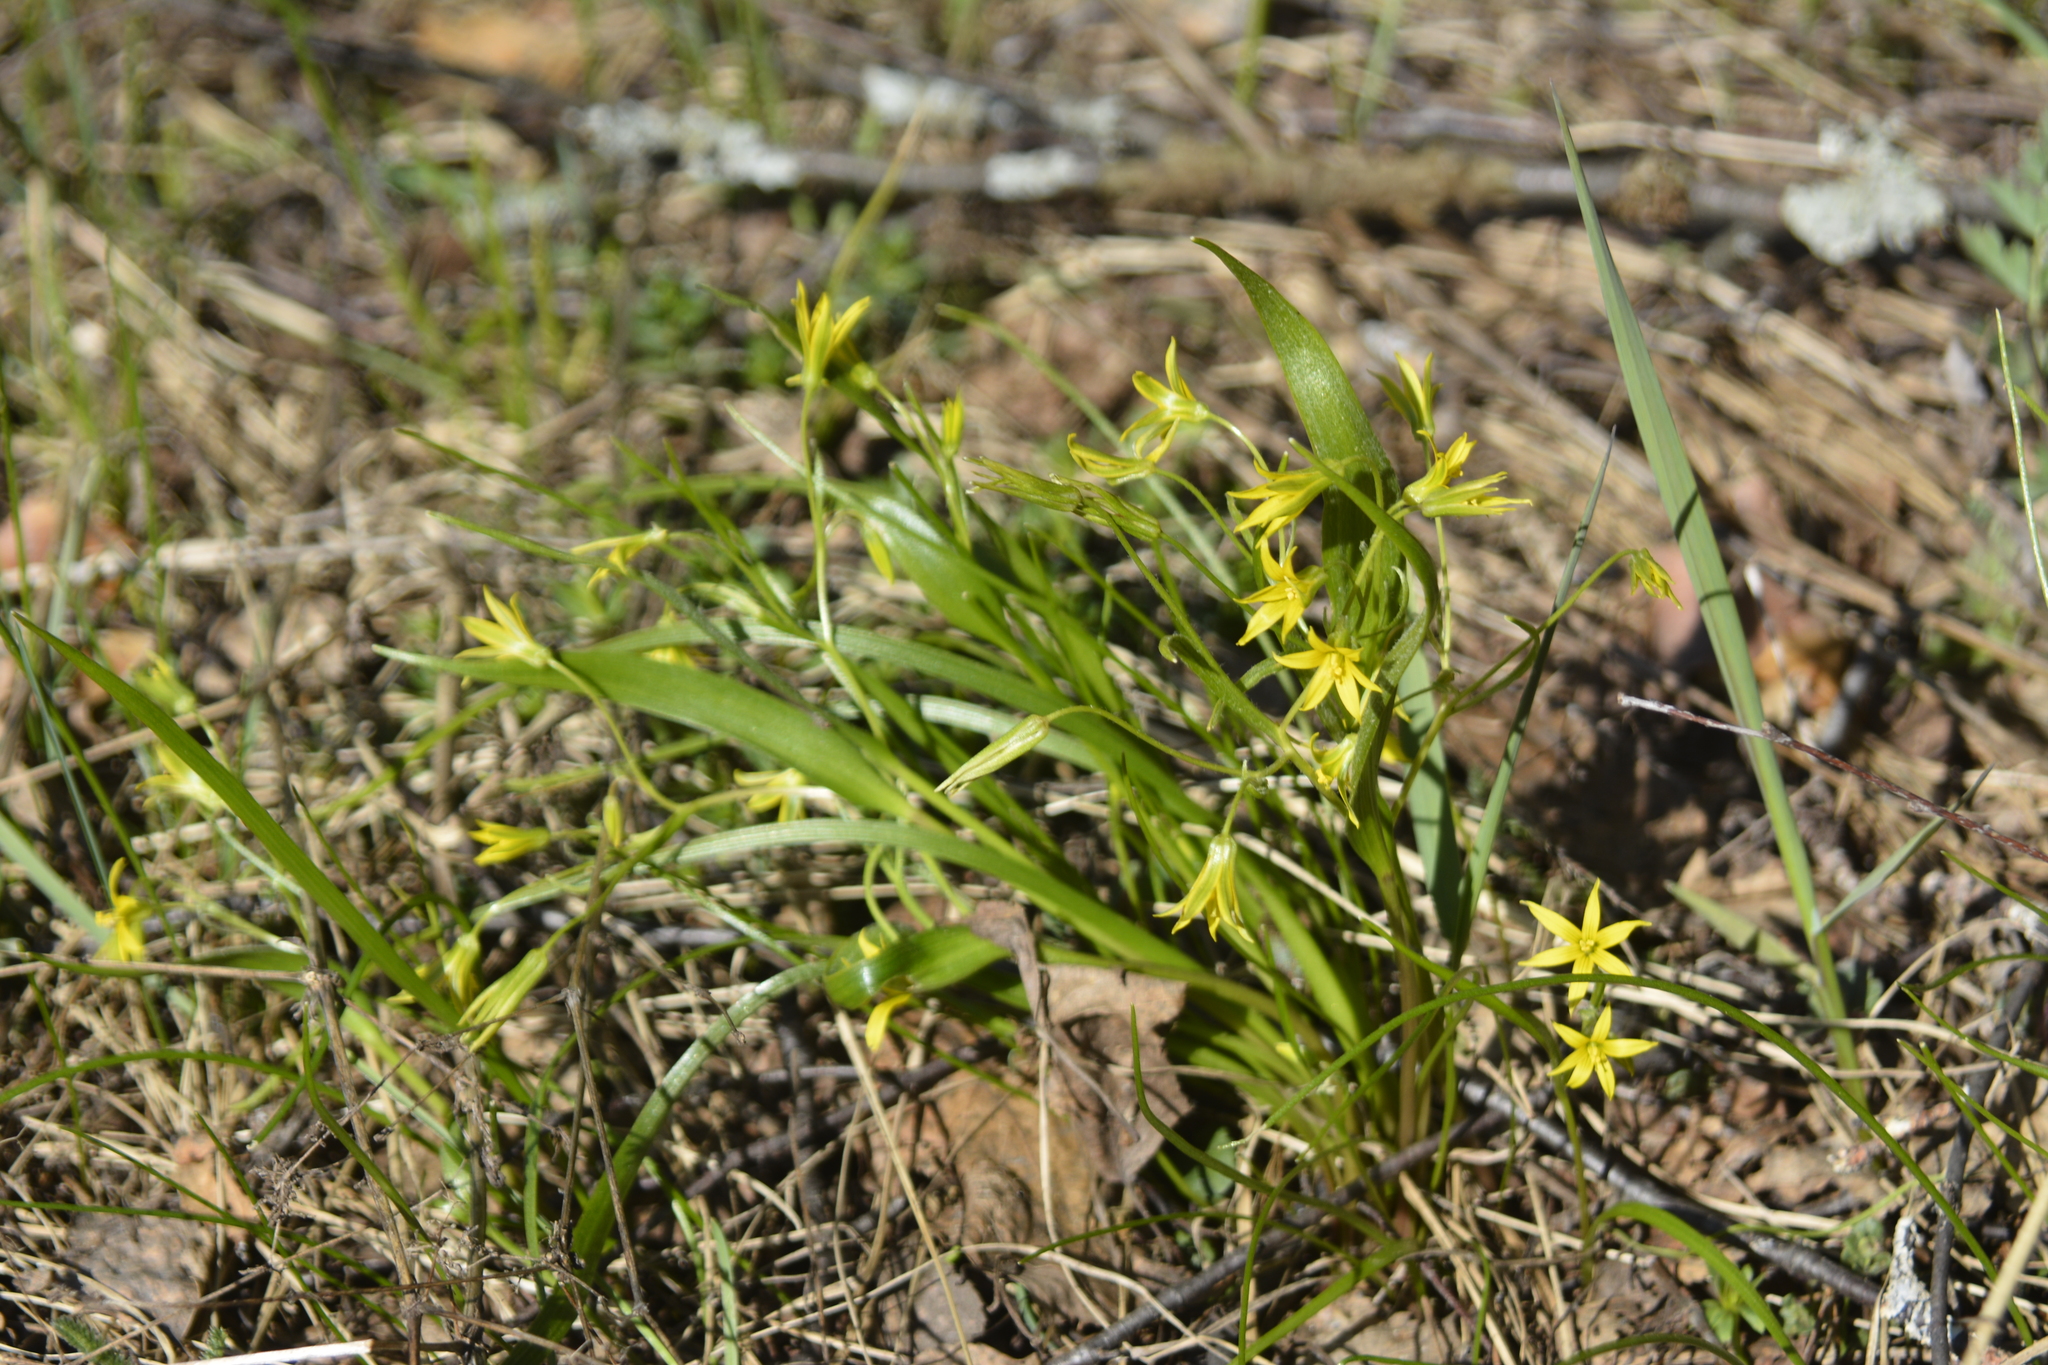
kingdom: Plantae
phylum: Tracheophyta
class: Liliopsida
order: Liliales
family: Liliaceae
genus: Gagea
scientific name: Gagea minima
